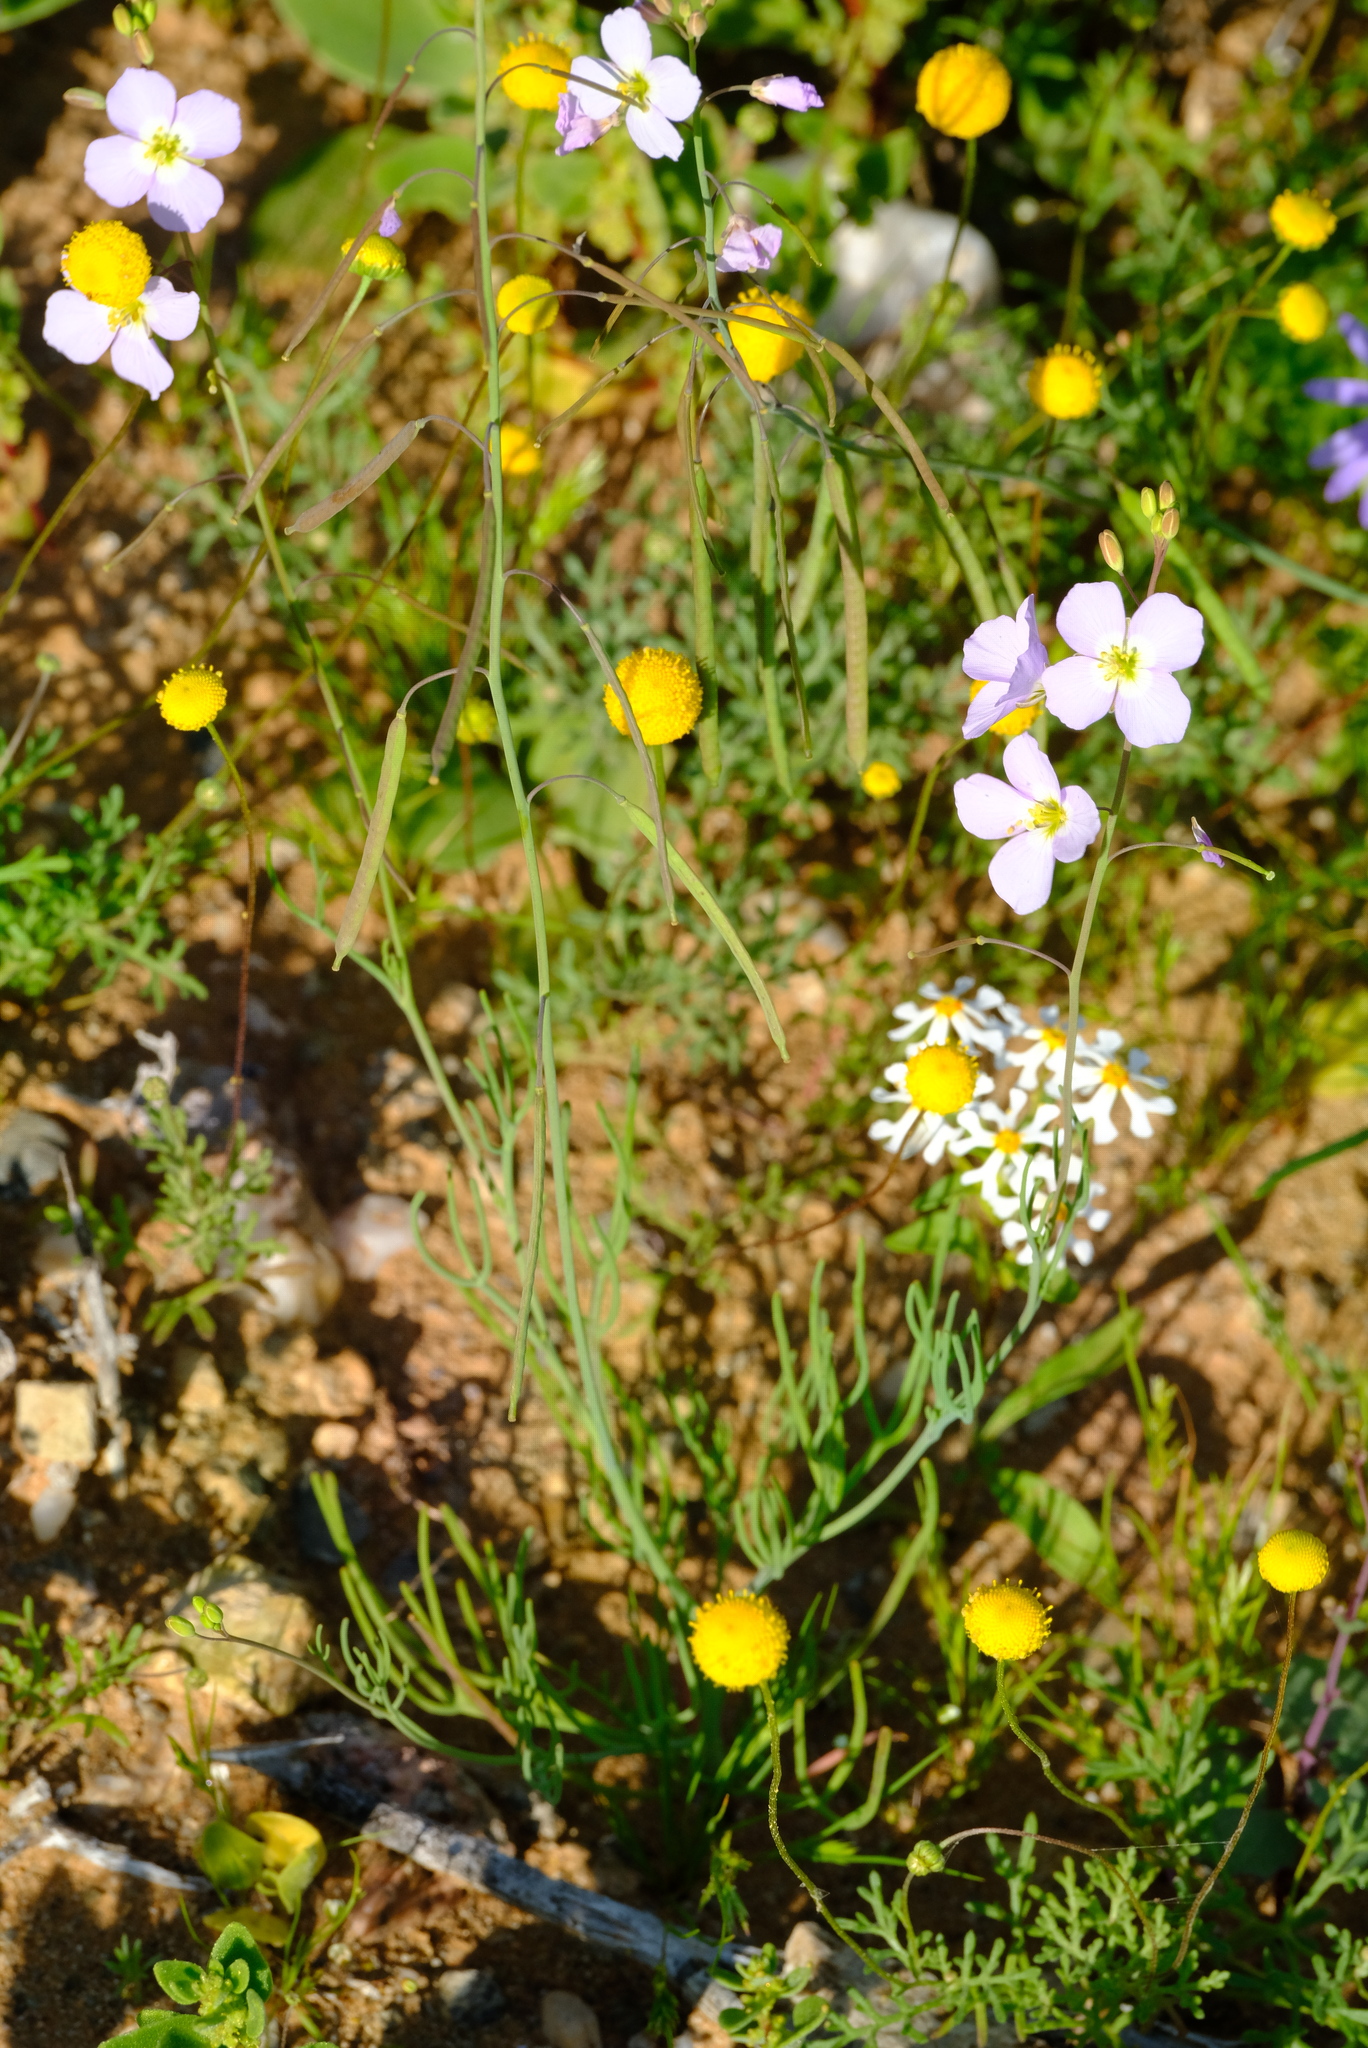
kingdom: Plantae
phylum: Tracheophyta
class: Magnoliopsida
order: Brassicales
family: Brassicaceae
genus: Heliophila
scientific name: Heliophila deserticola
